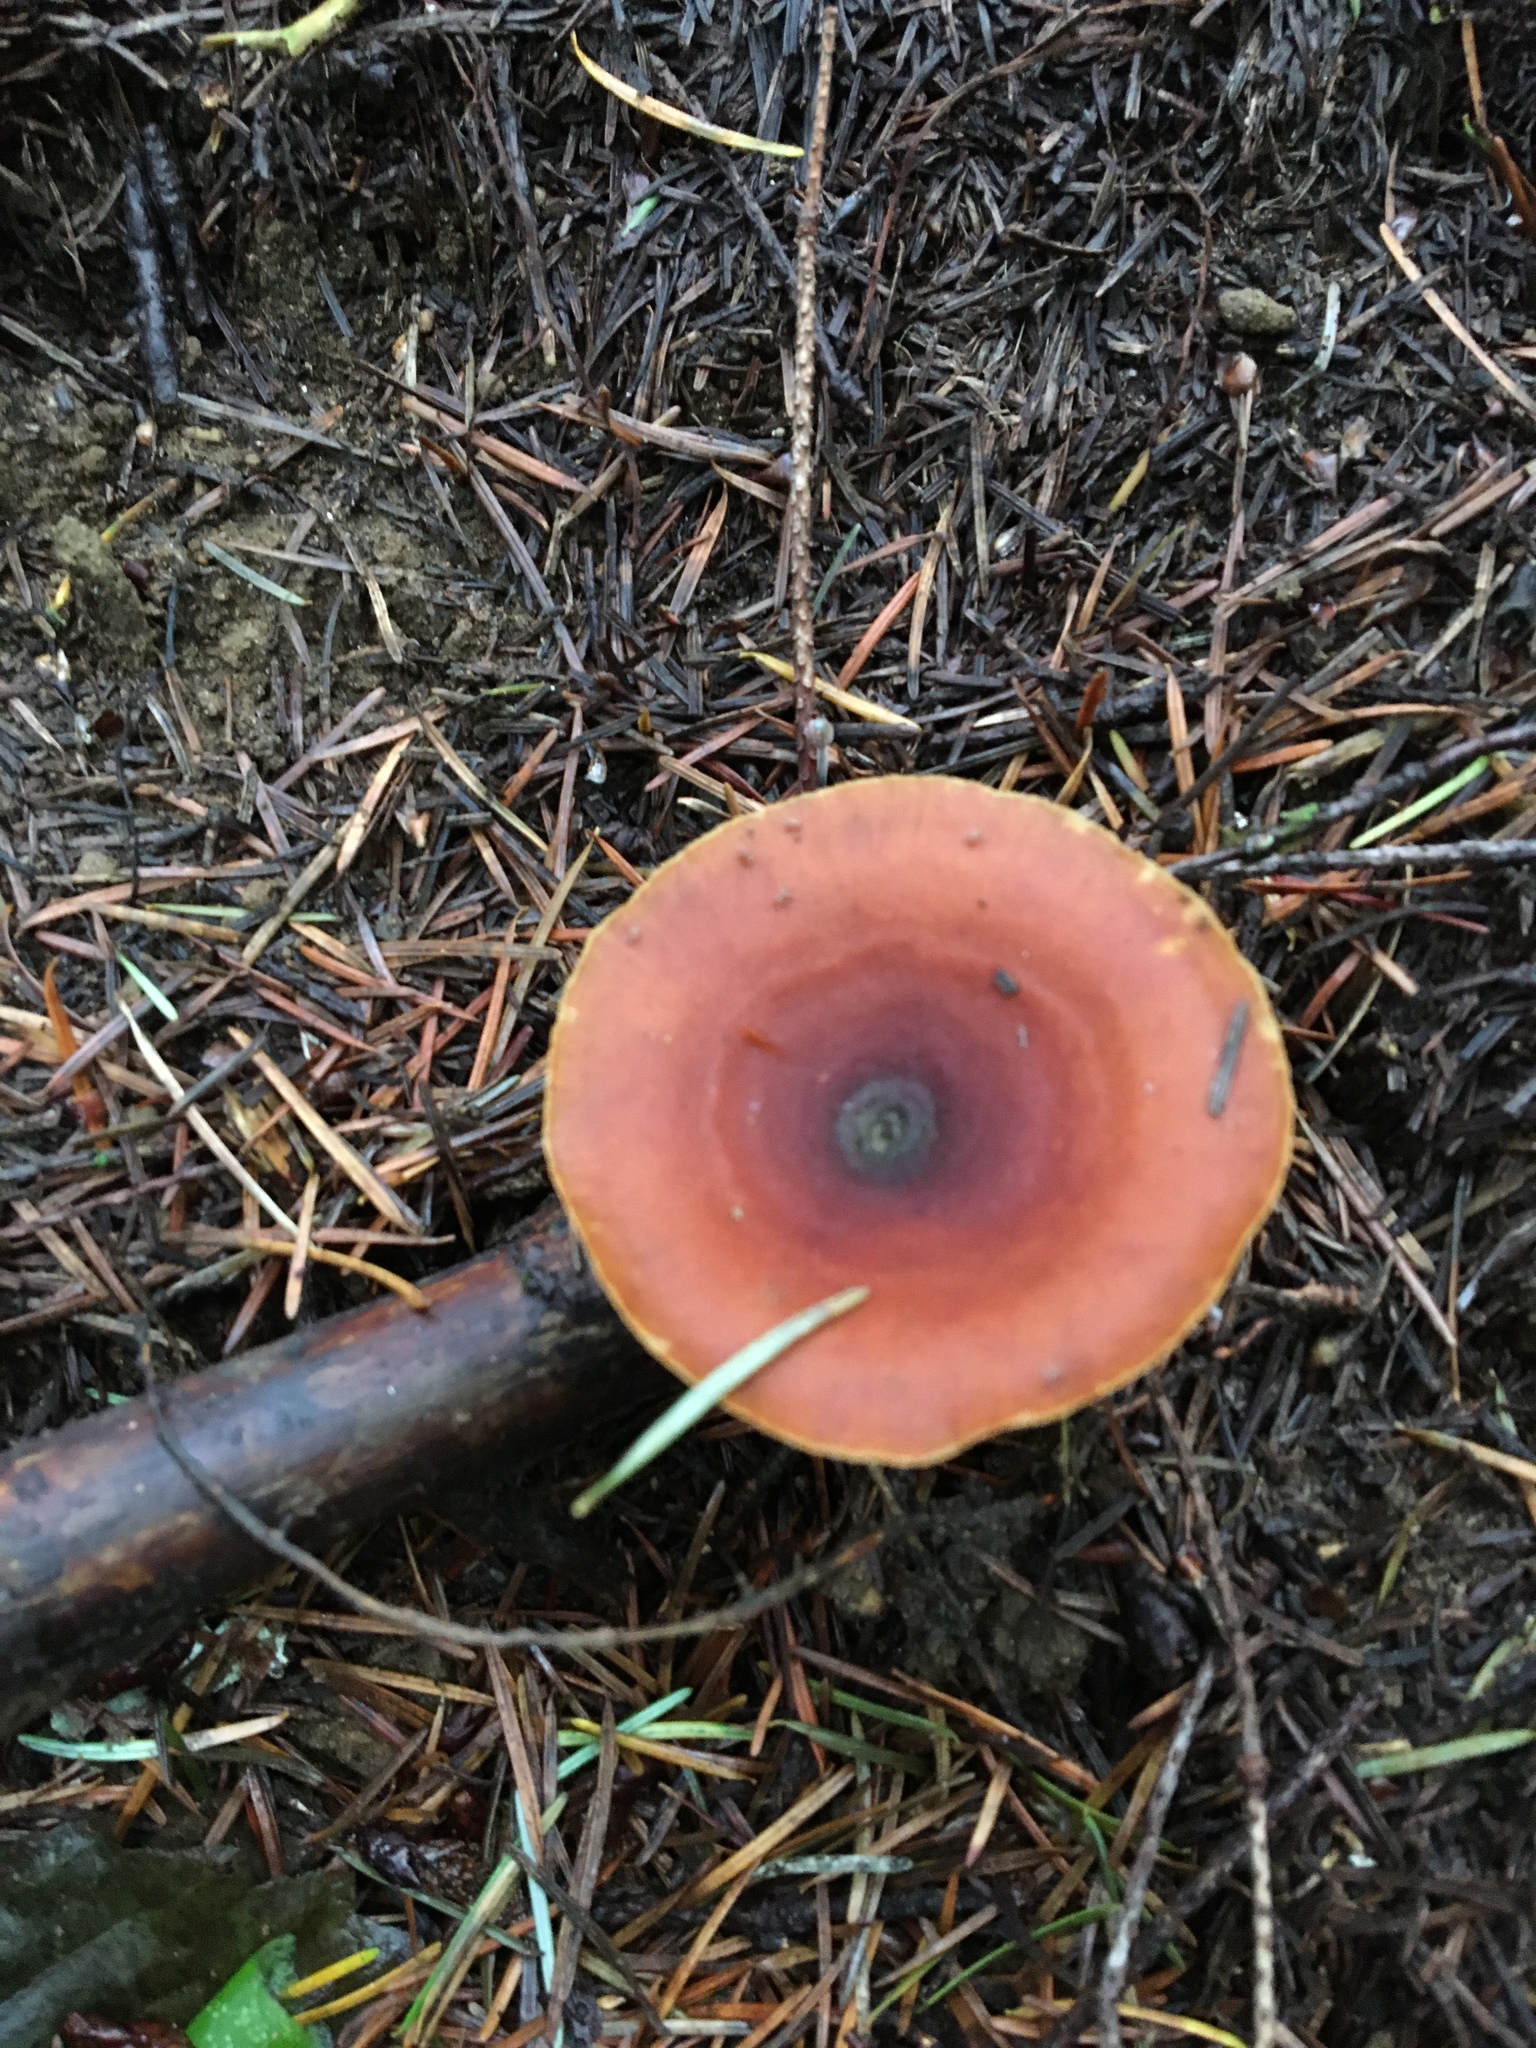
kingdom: Fungi
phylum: Basidiomycota
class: Agaricomycetes
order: Polyporales
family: Polyporaceae
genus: Picipes
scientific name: Picipes badius
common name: Bay polypore
